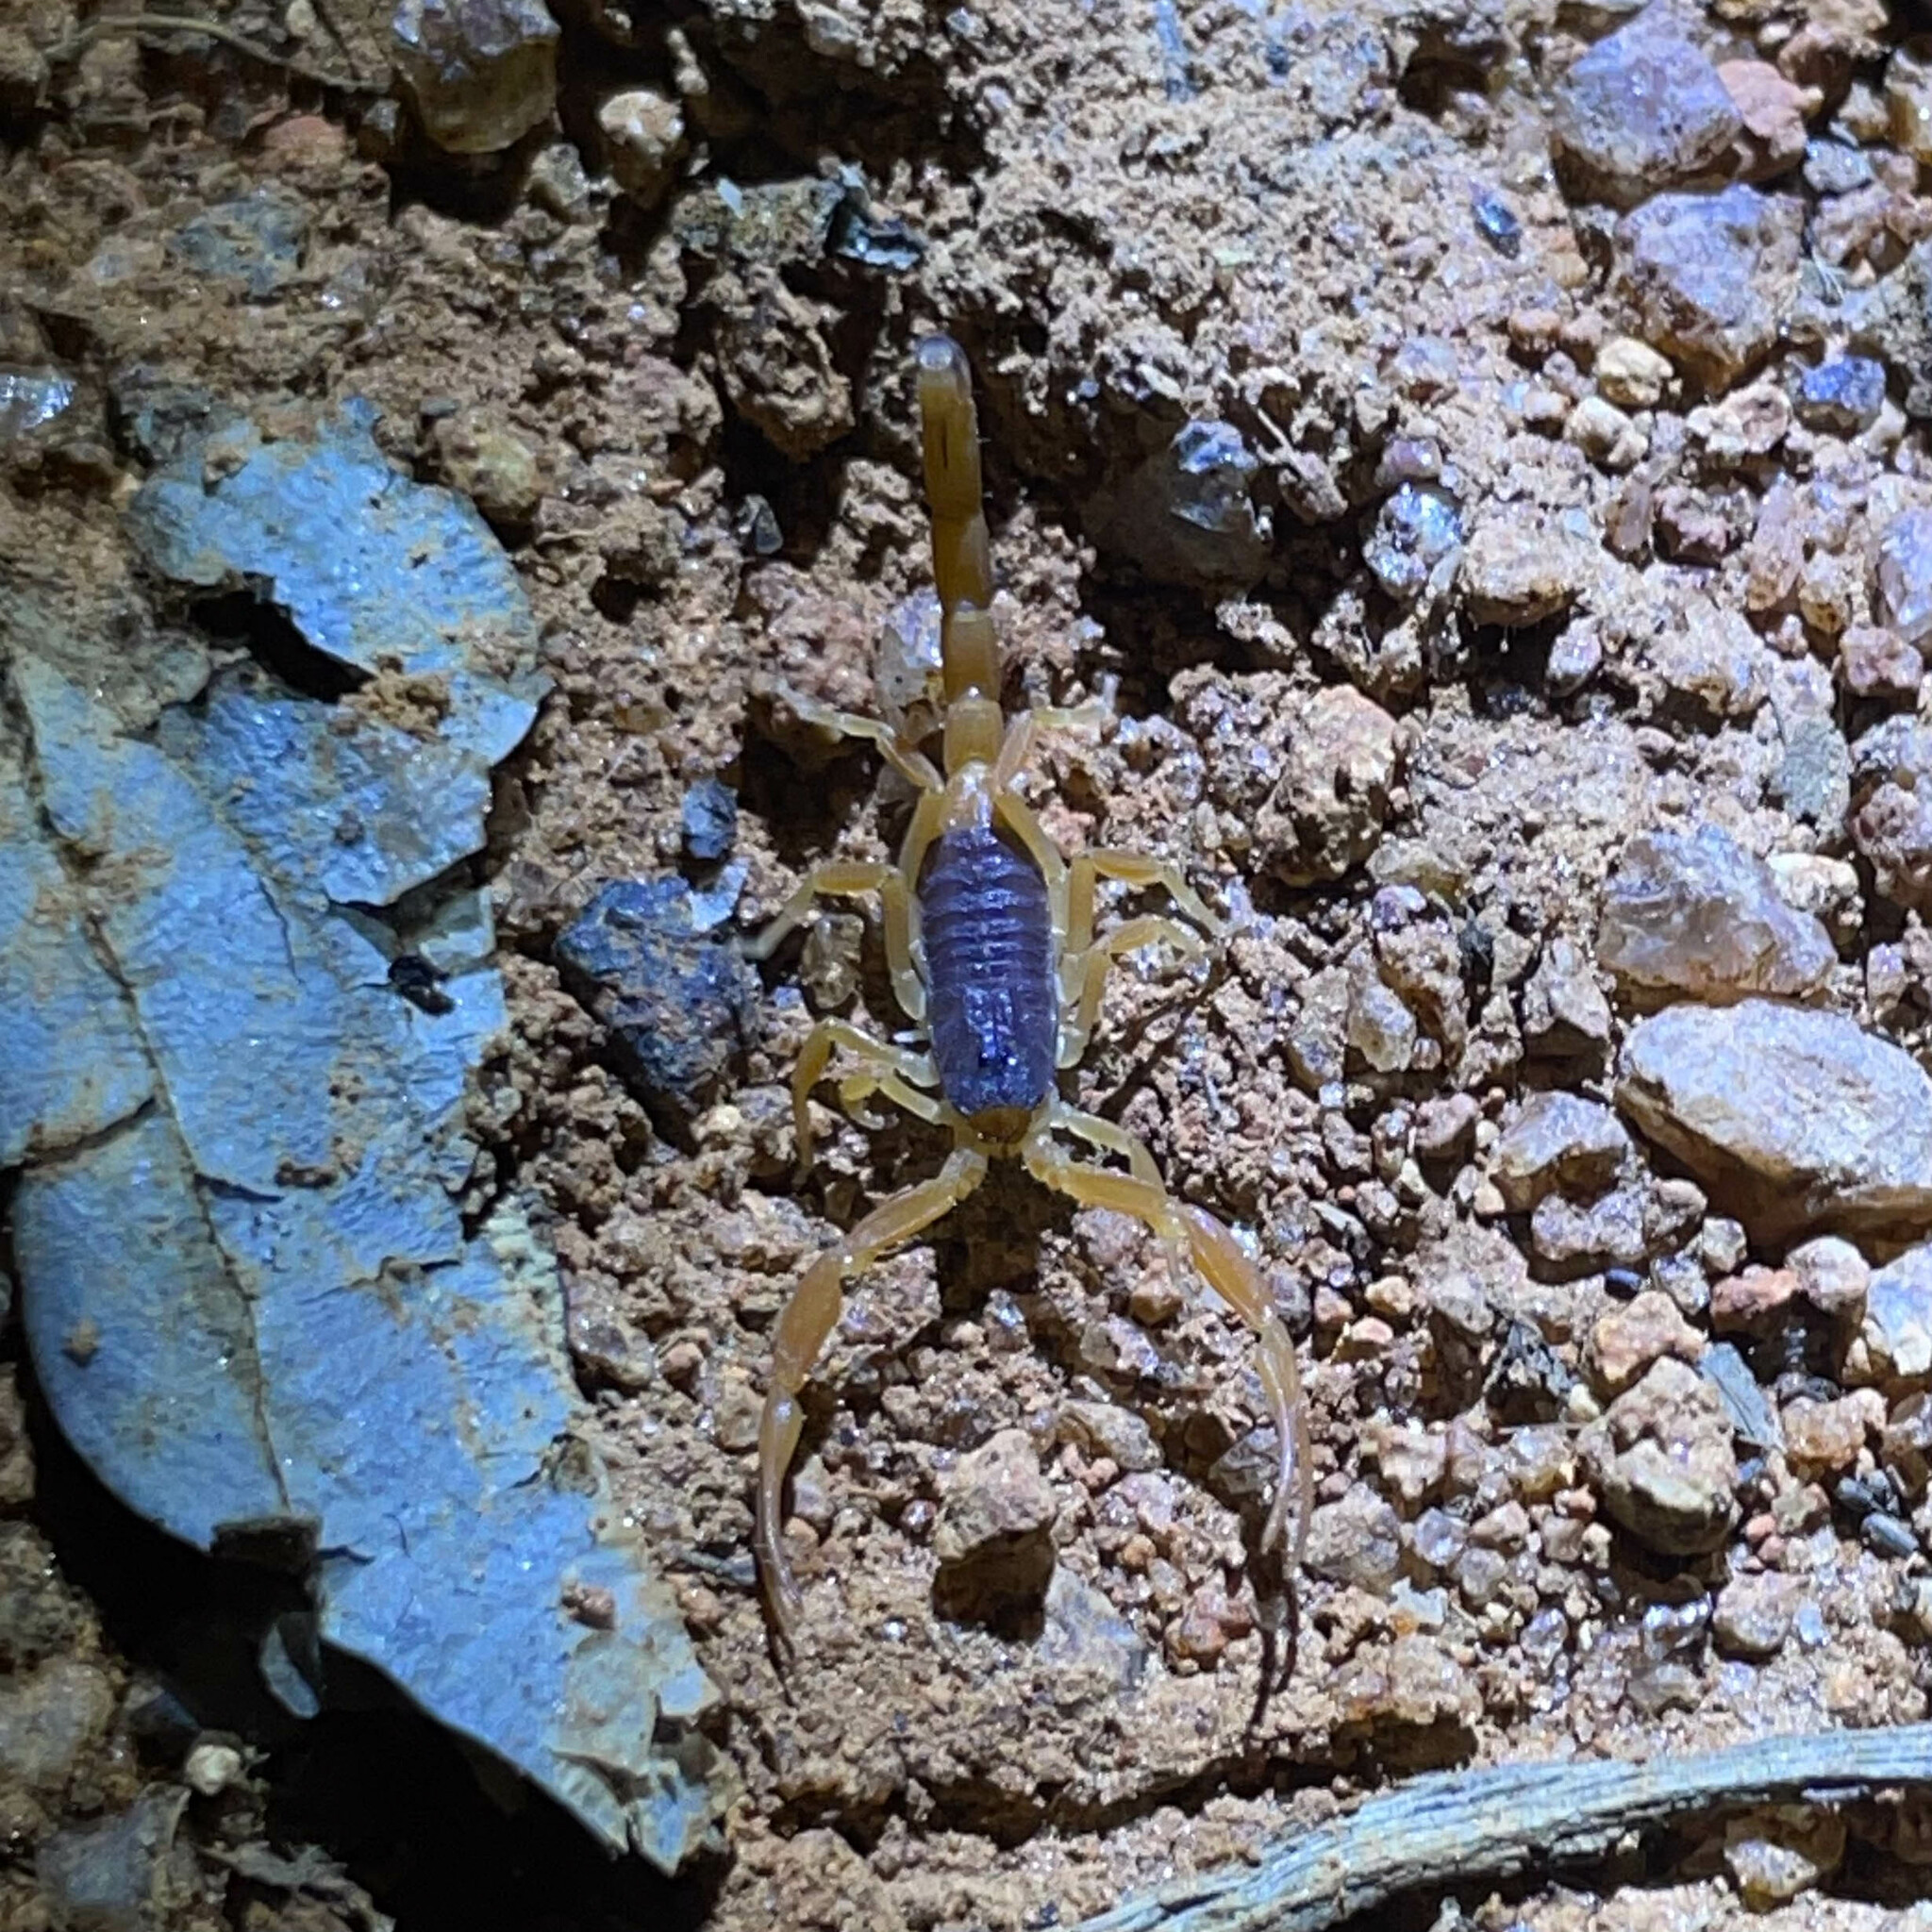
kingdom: Animalia
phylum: Arthropoda
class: Arachnida
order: Scorpiones
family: Buthidae
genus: Tityus
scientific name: Tityus melici
